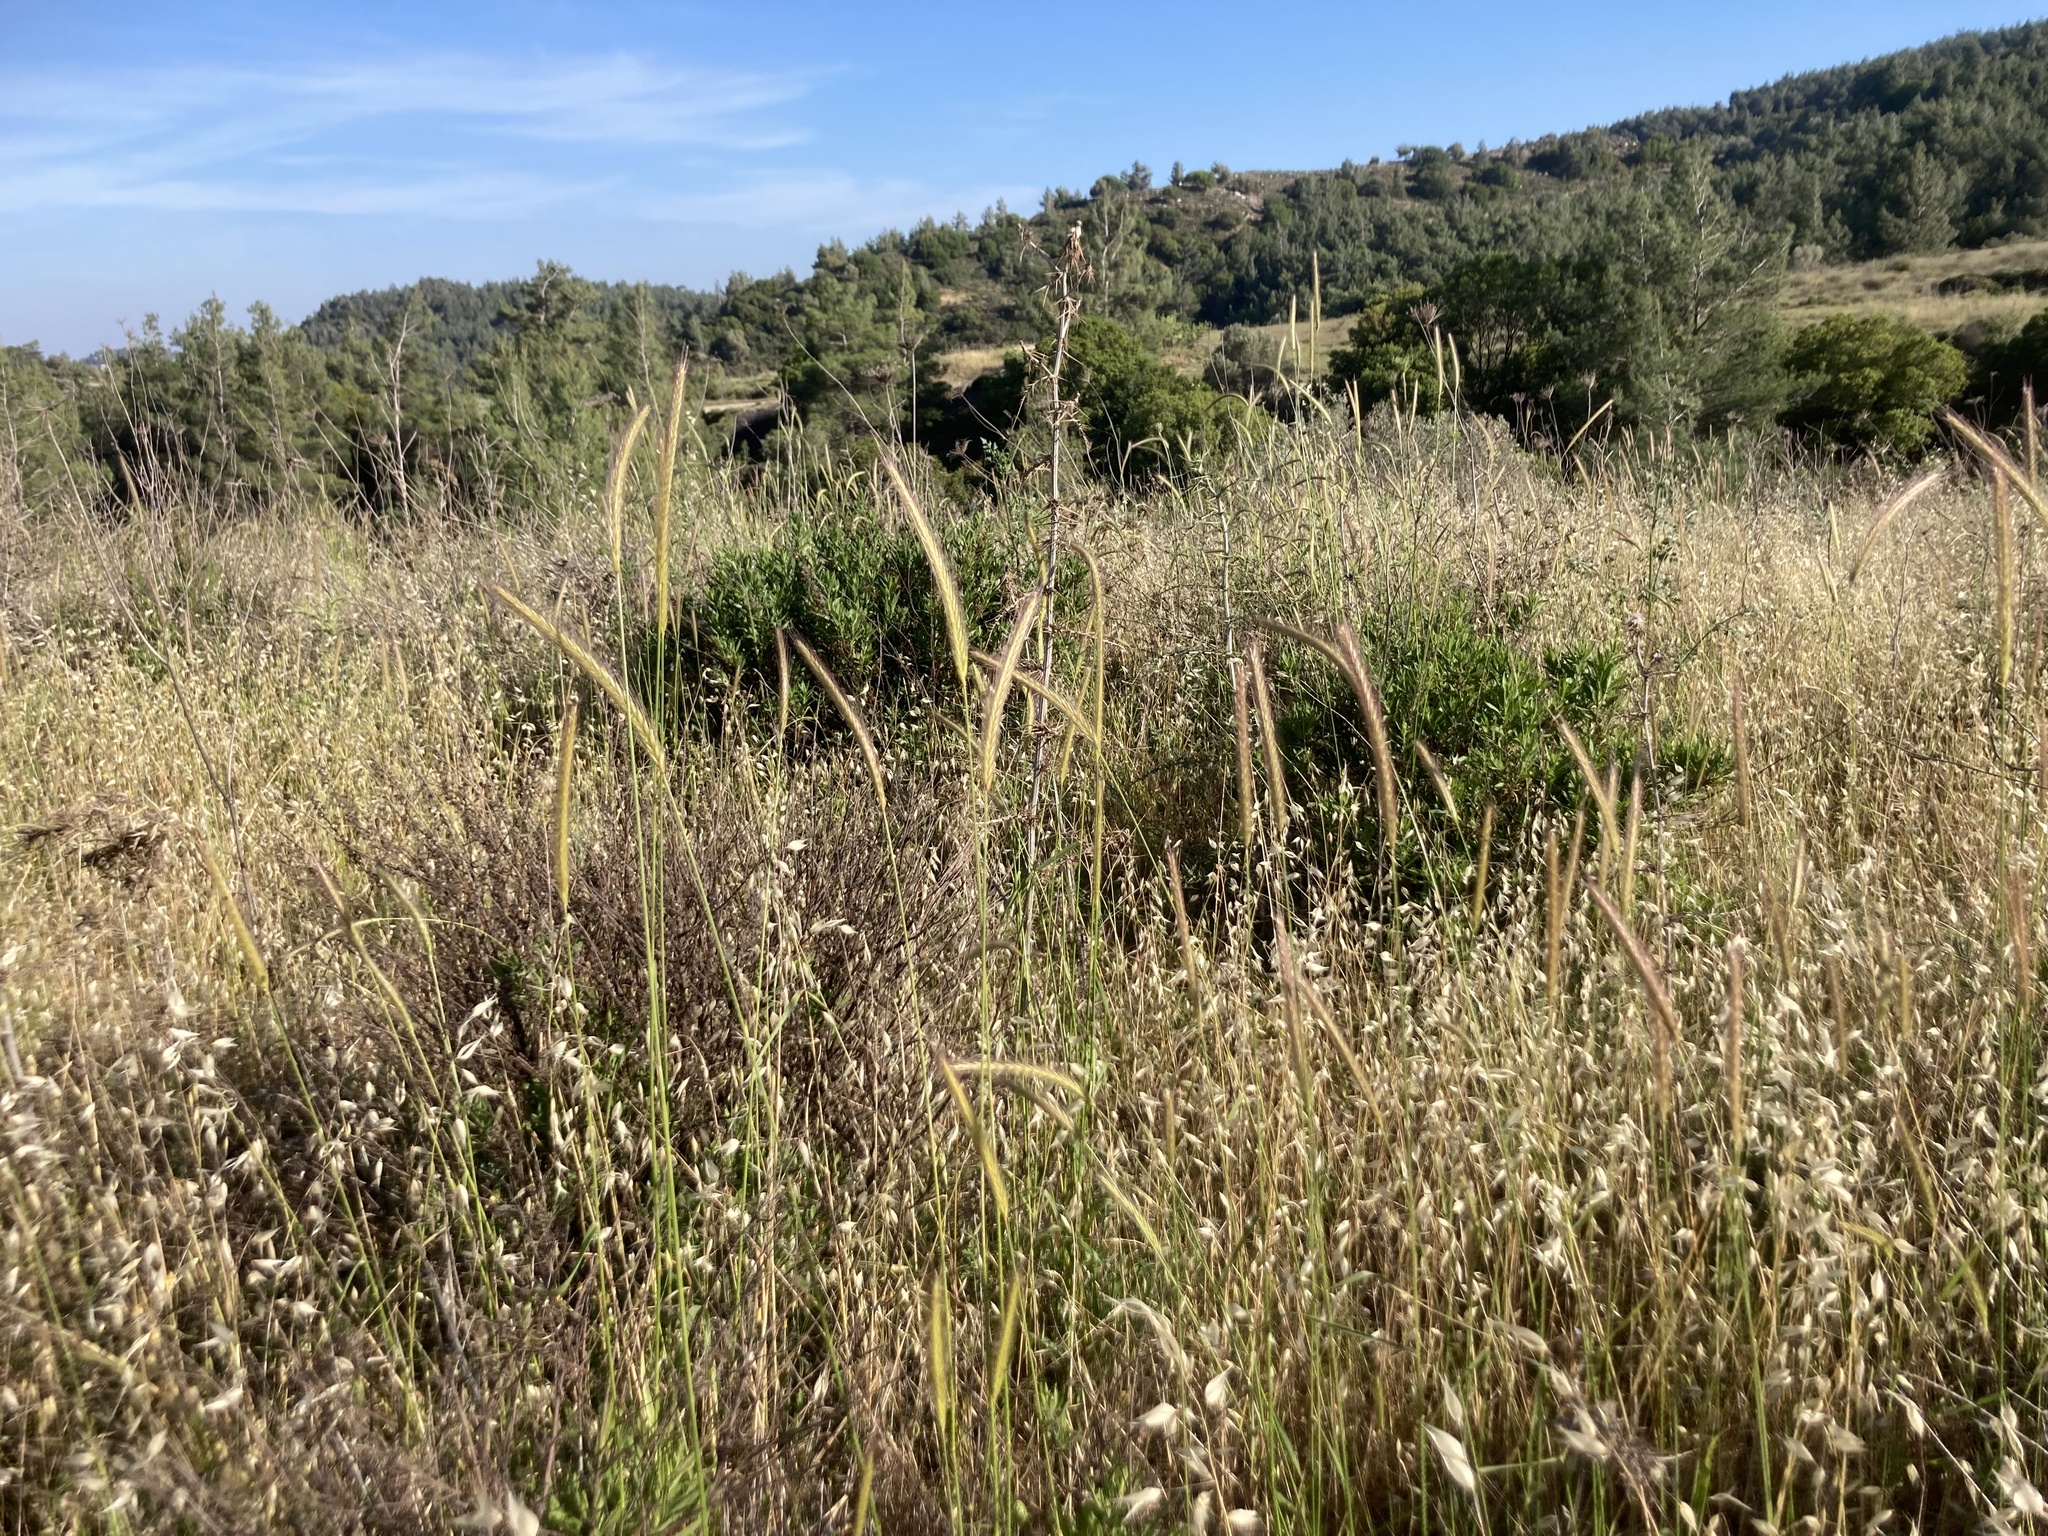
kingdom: Plantae
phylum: Tracheophyta
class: Liliopsida
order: Poales
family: Poaceae
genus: Hordeum
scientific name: Hordeum bulbosum
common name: Bulbous barley
